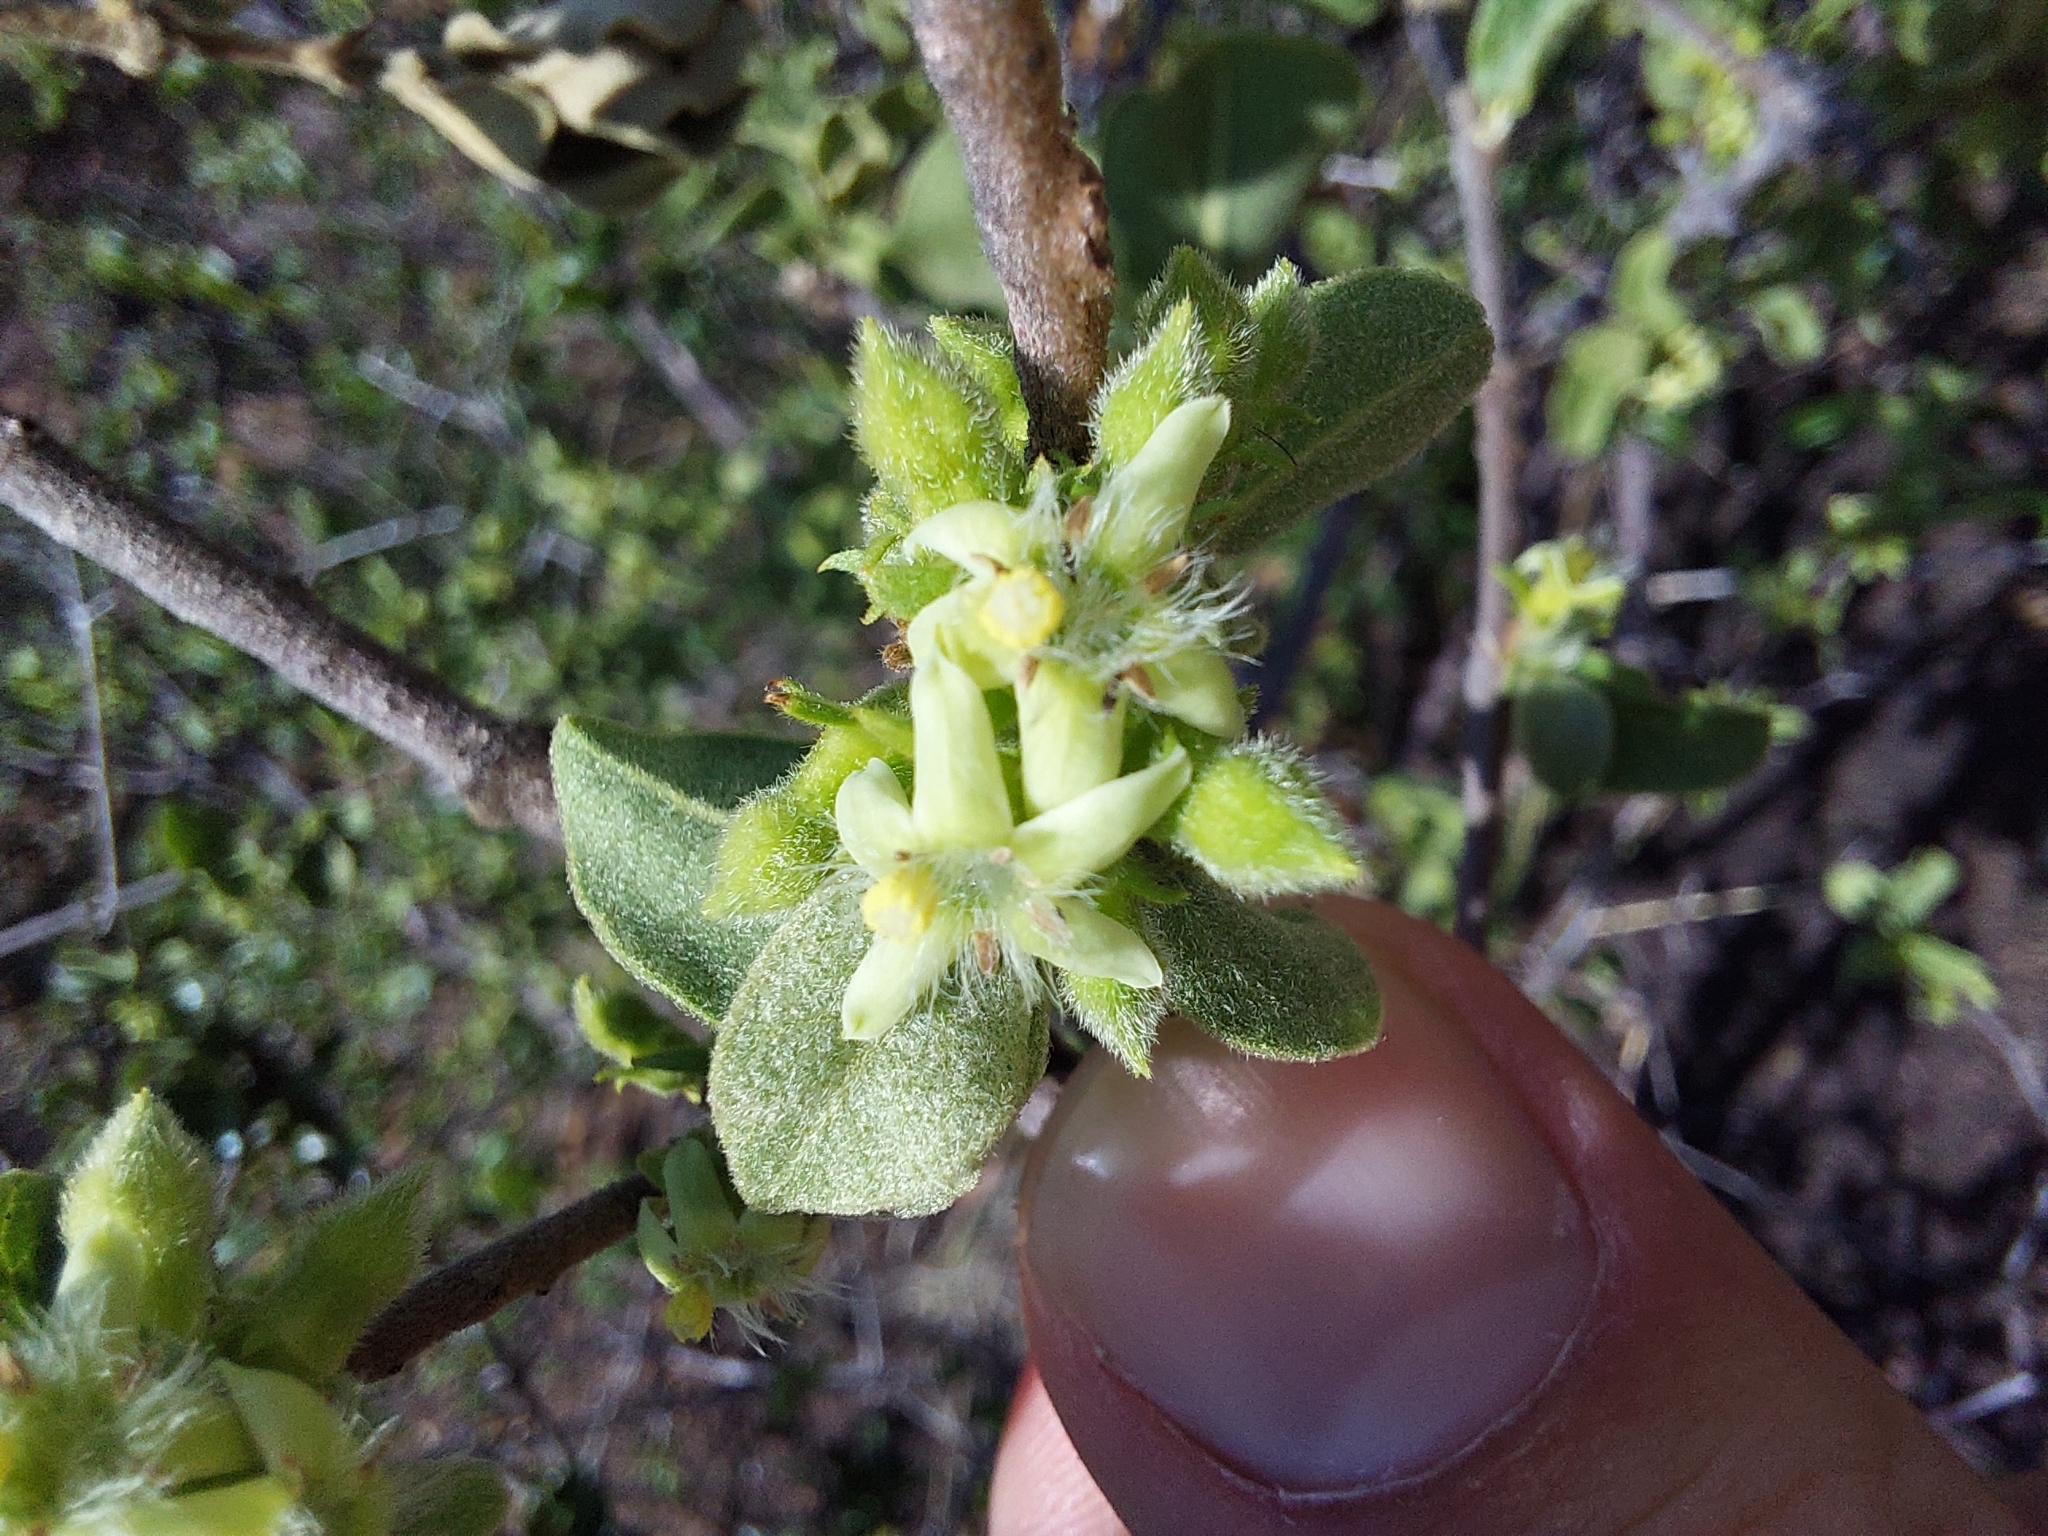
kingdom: Plantae
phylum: Tracheophyta
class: Magnoliopsida
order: Gentianales
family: Rubiaceae
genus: Vangueria
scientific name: Vangueria infausta
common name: Medlar
